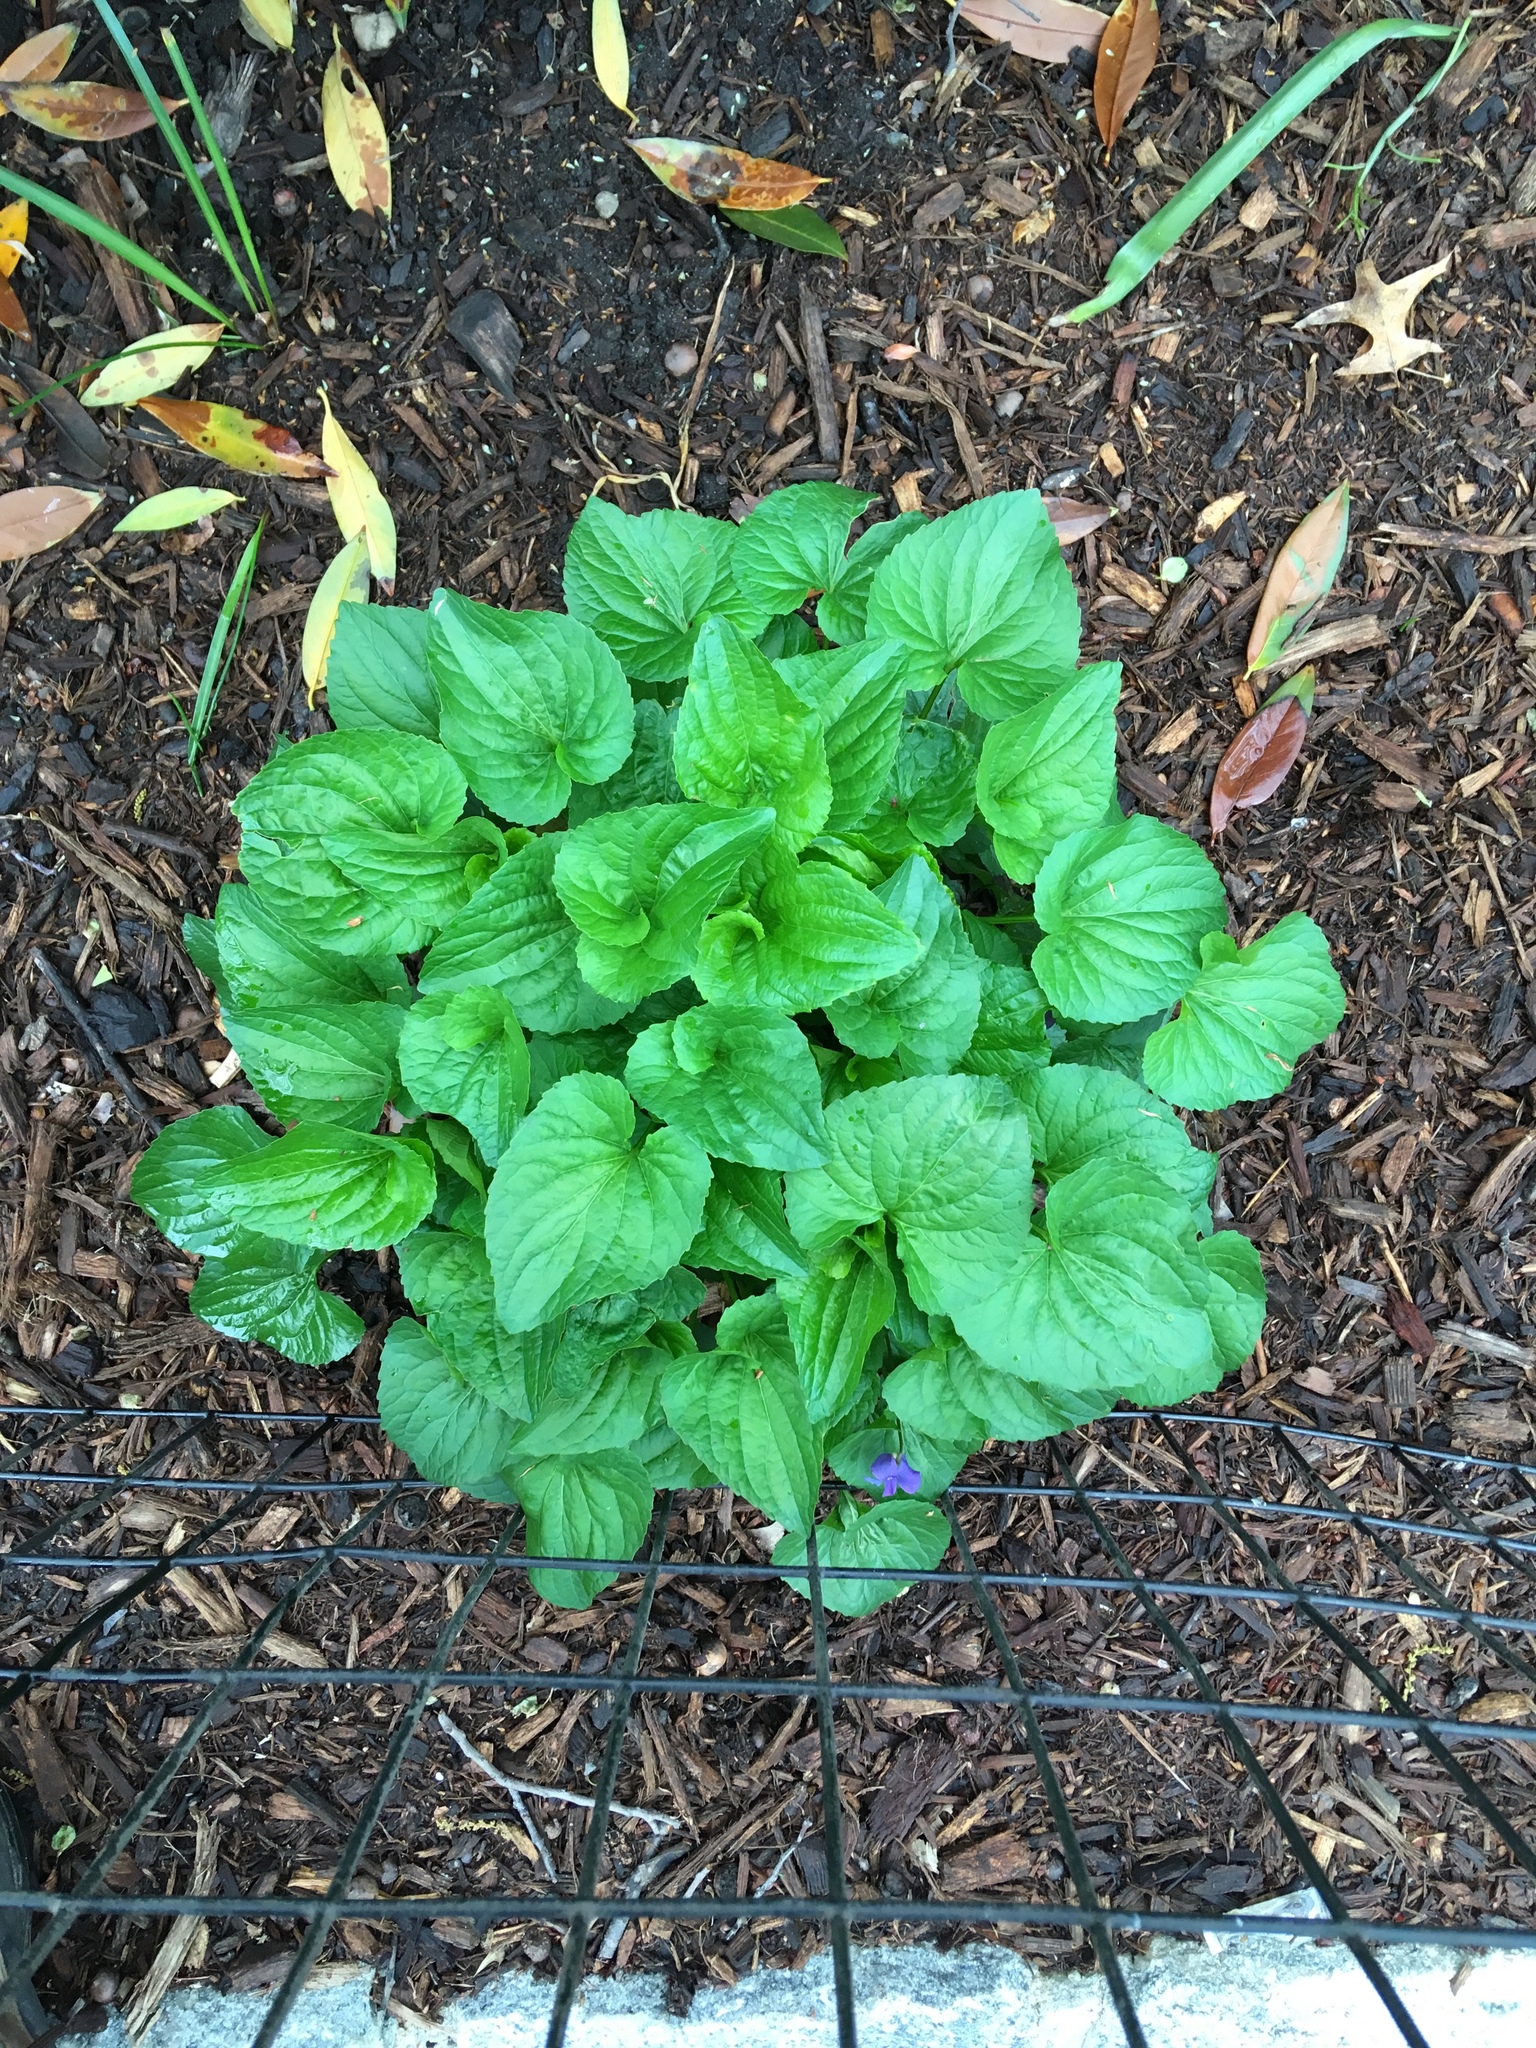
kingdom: Plantae
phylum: Tracheophyta
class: Magnoliopsida
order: Malpighiales
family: Violaceae
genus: Viola
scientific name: Viola sororia
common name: Dooryard violet
